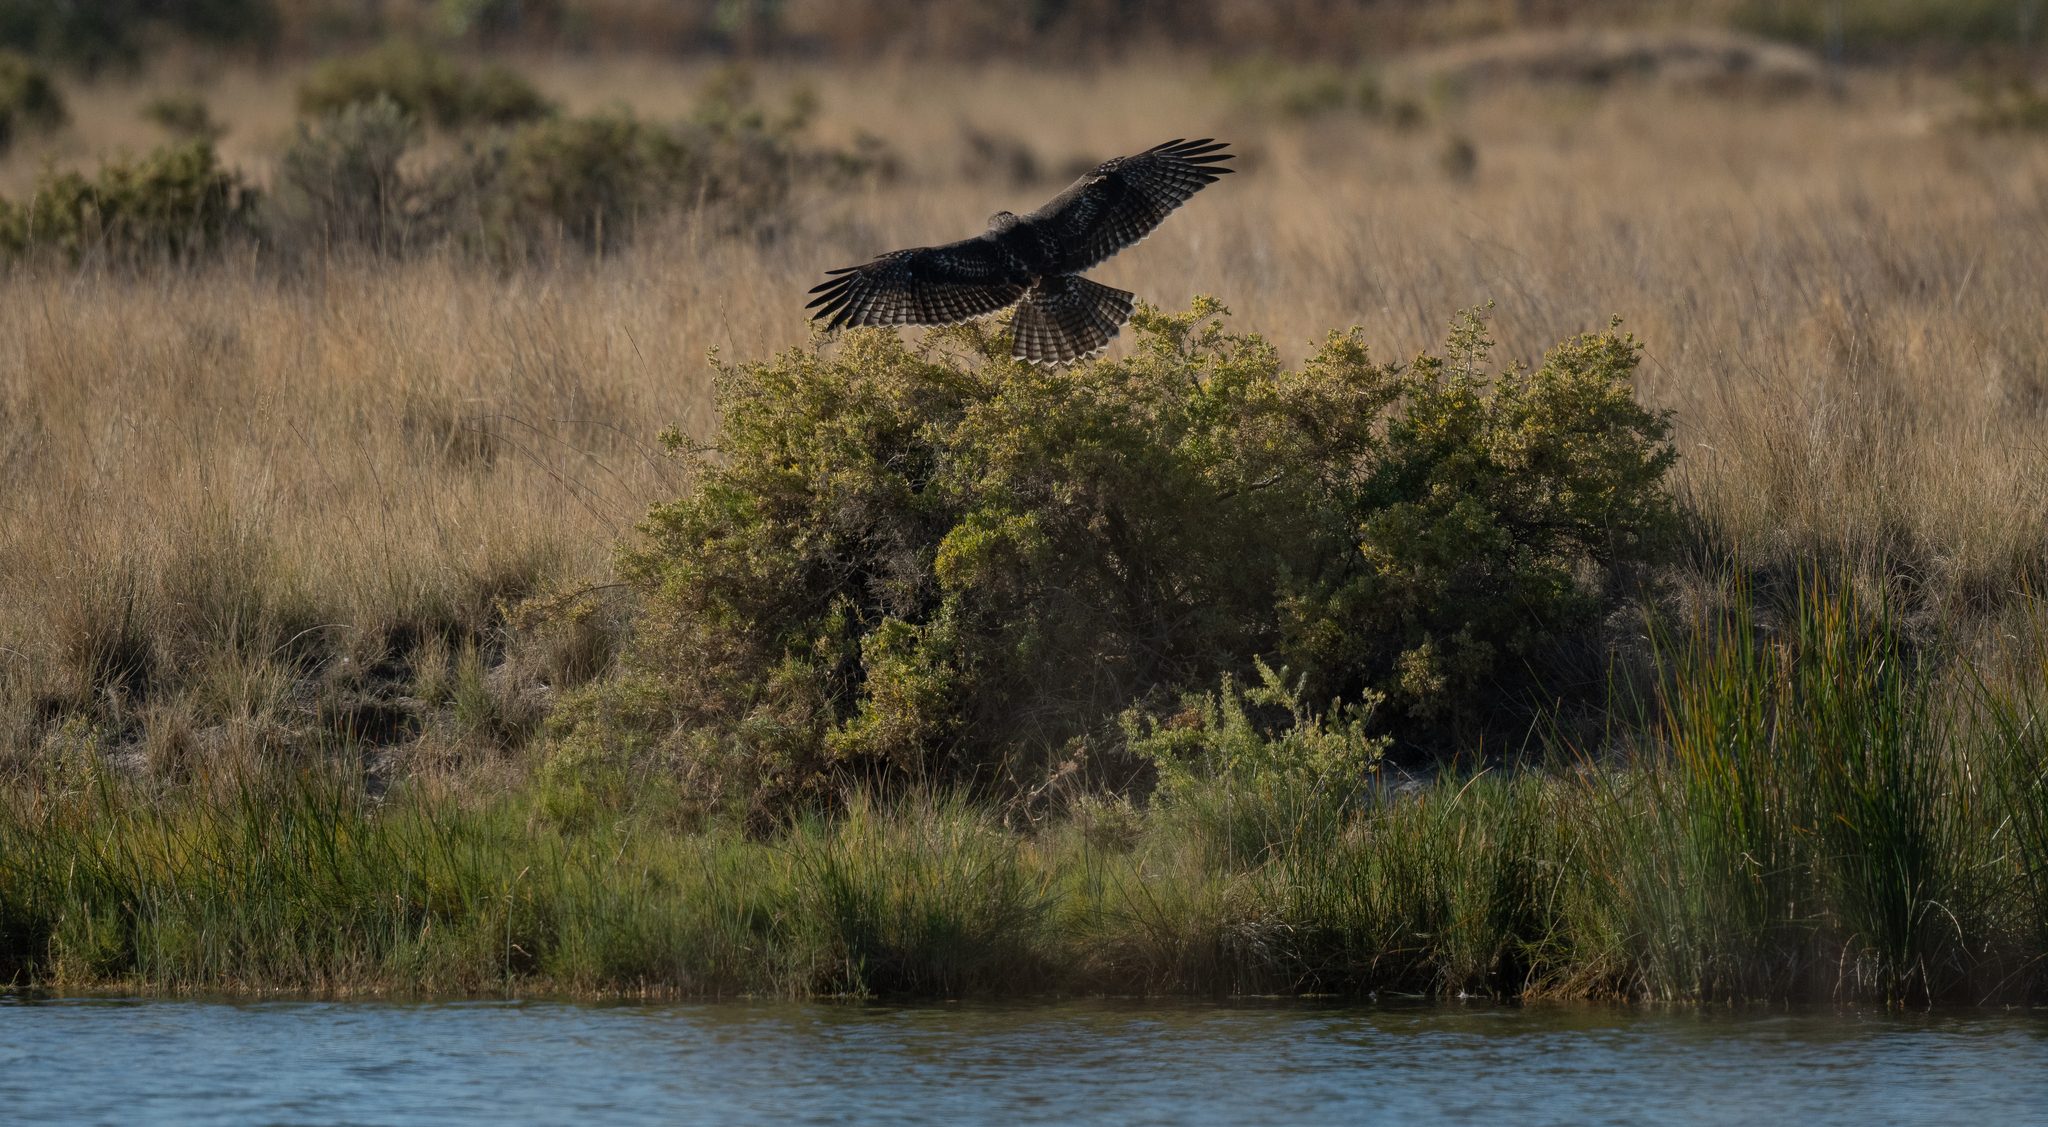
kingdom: Animalia
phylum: Chordata
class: Aves
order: Accipitriformes
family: Accipitridae
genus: Buteo
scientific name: Buteo jamaicensis
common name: Red-tailed hawk
